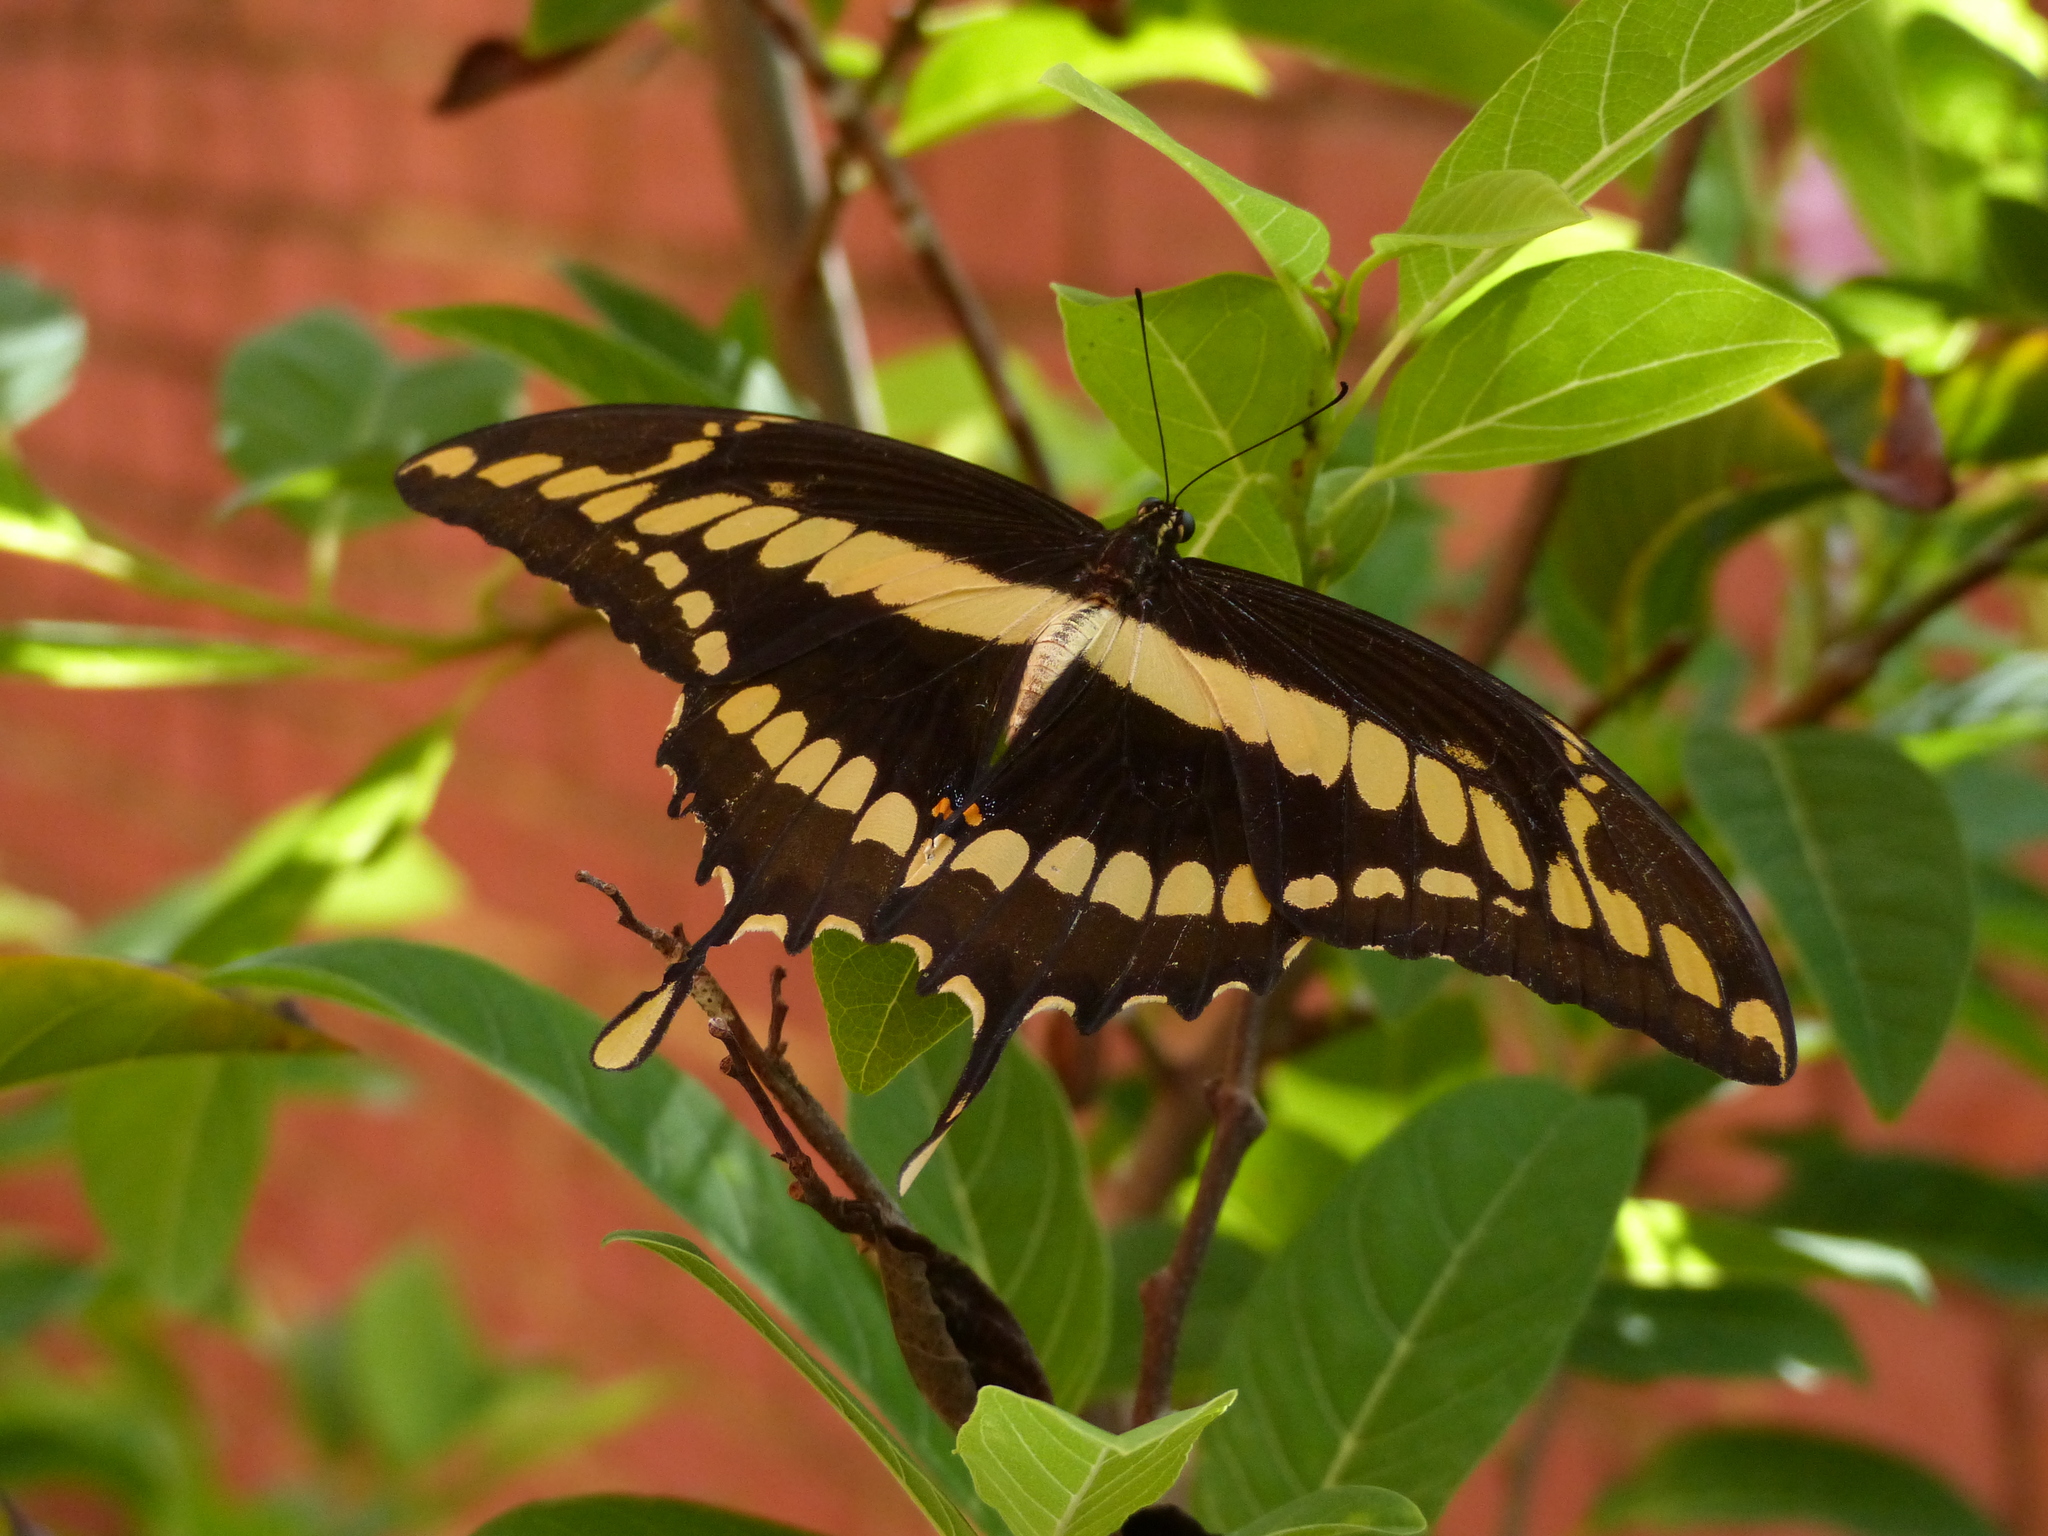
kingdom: Animalia
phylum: Arthropoda
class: Insecta
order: Lepidoptera
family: Papilionidae
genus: Papilio
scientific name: Papilio thoas
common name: King swallowtail
